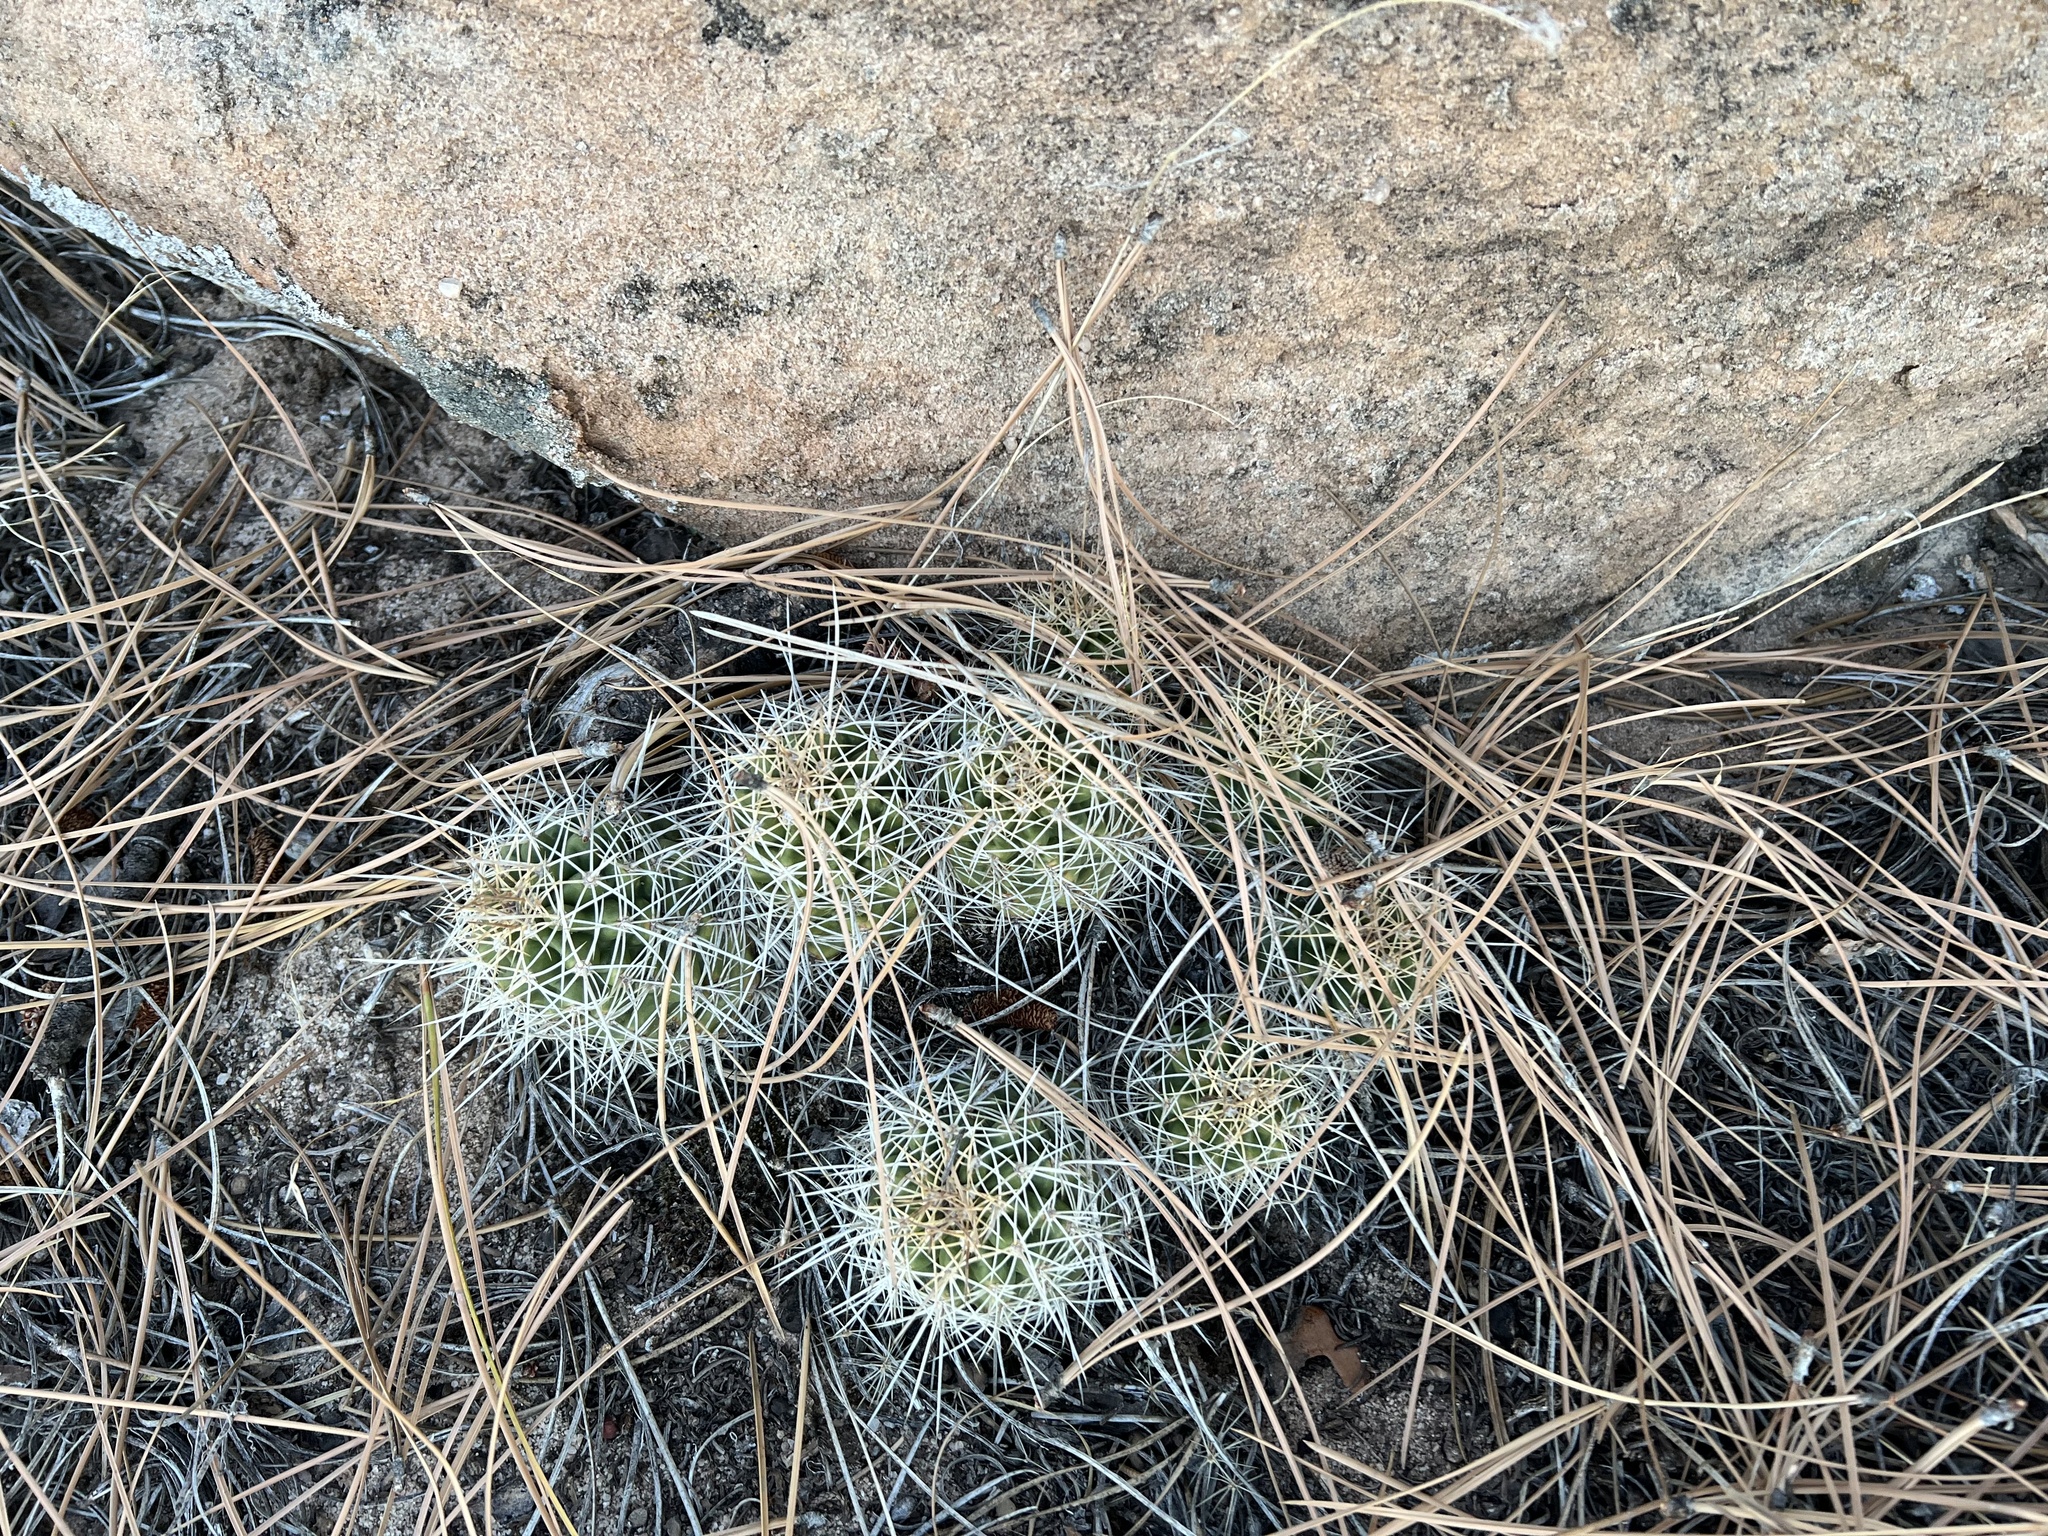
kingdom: Plantae
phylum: Tracheophyta
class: Magnoliopsida
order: Caryophyllales
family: Cactaceae
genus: Echinocereus
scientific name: Echinocereus triglochidiatus
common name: Claretcup hedgehog
